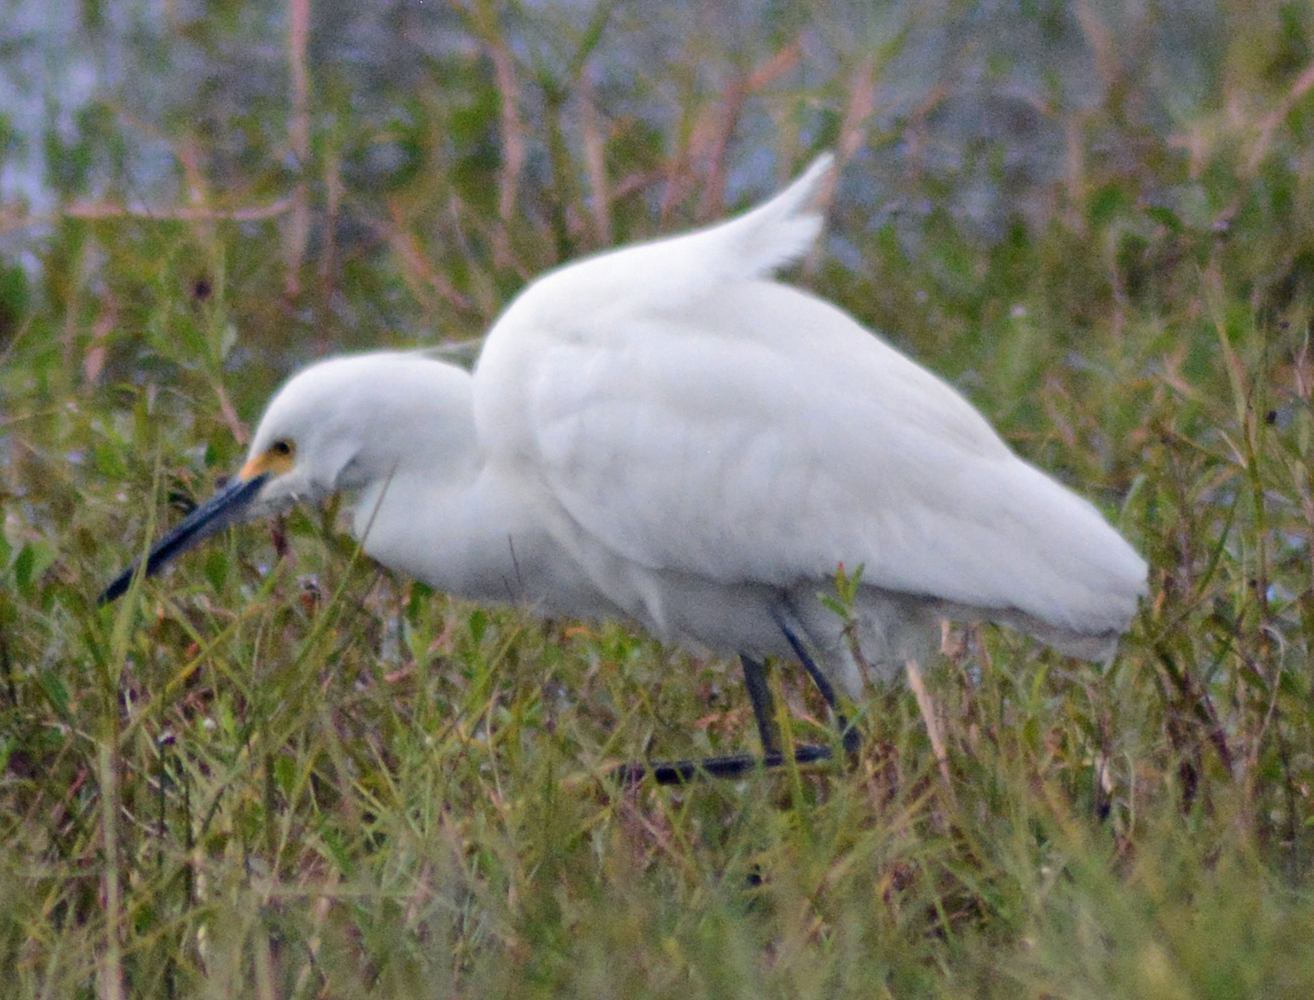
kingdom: Animalia
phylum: Chordata
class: Aves
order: Pelecaniformes
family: Ardeidae
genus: Egretta
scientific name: Egretta thula
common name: Snowy egret
